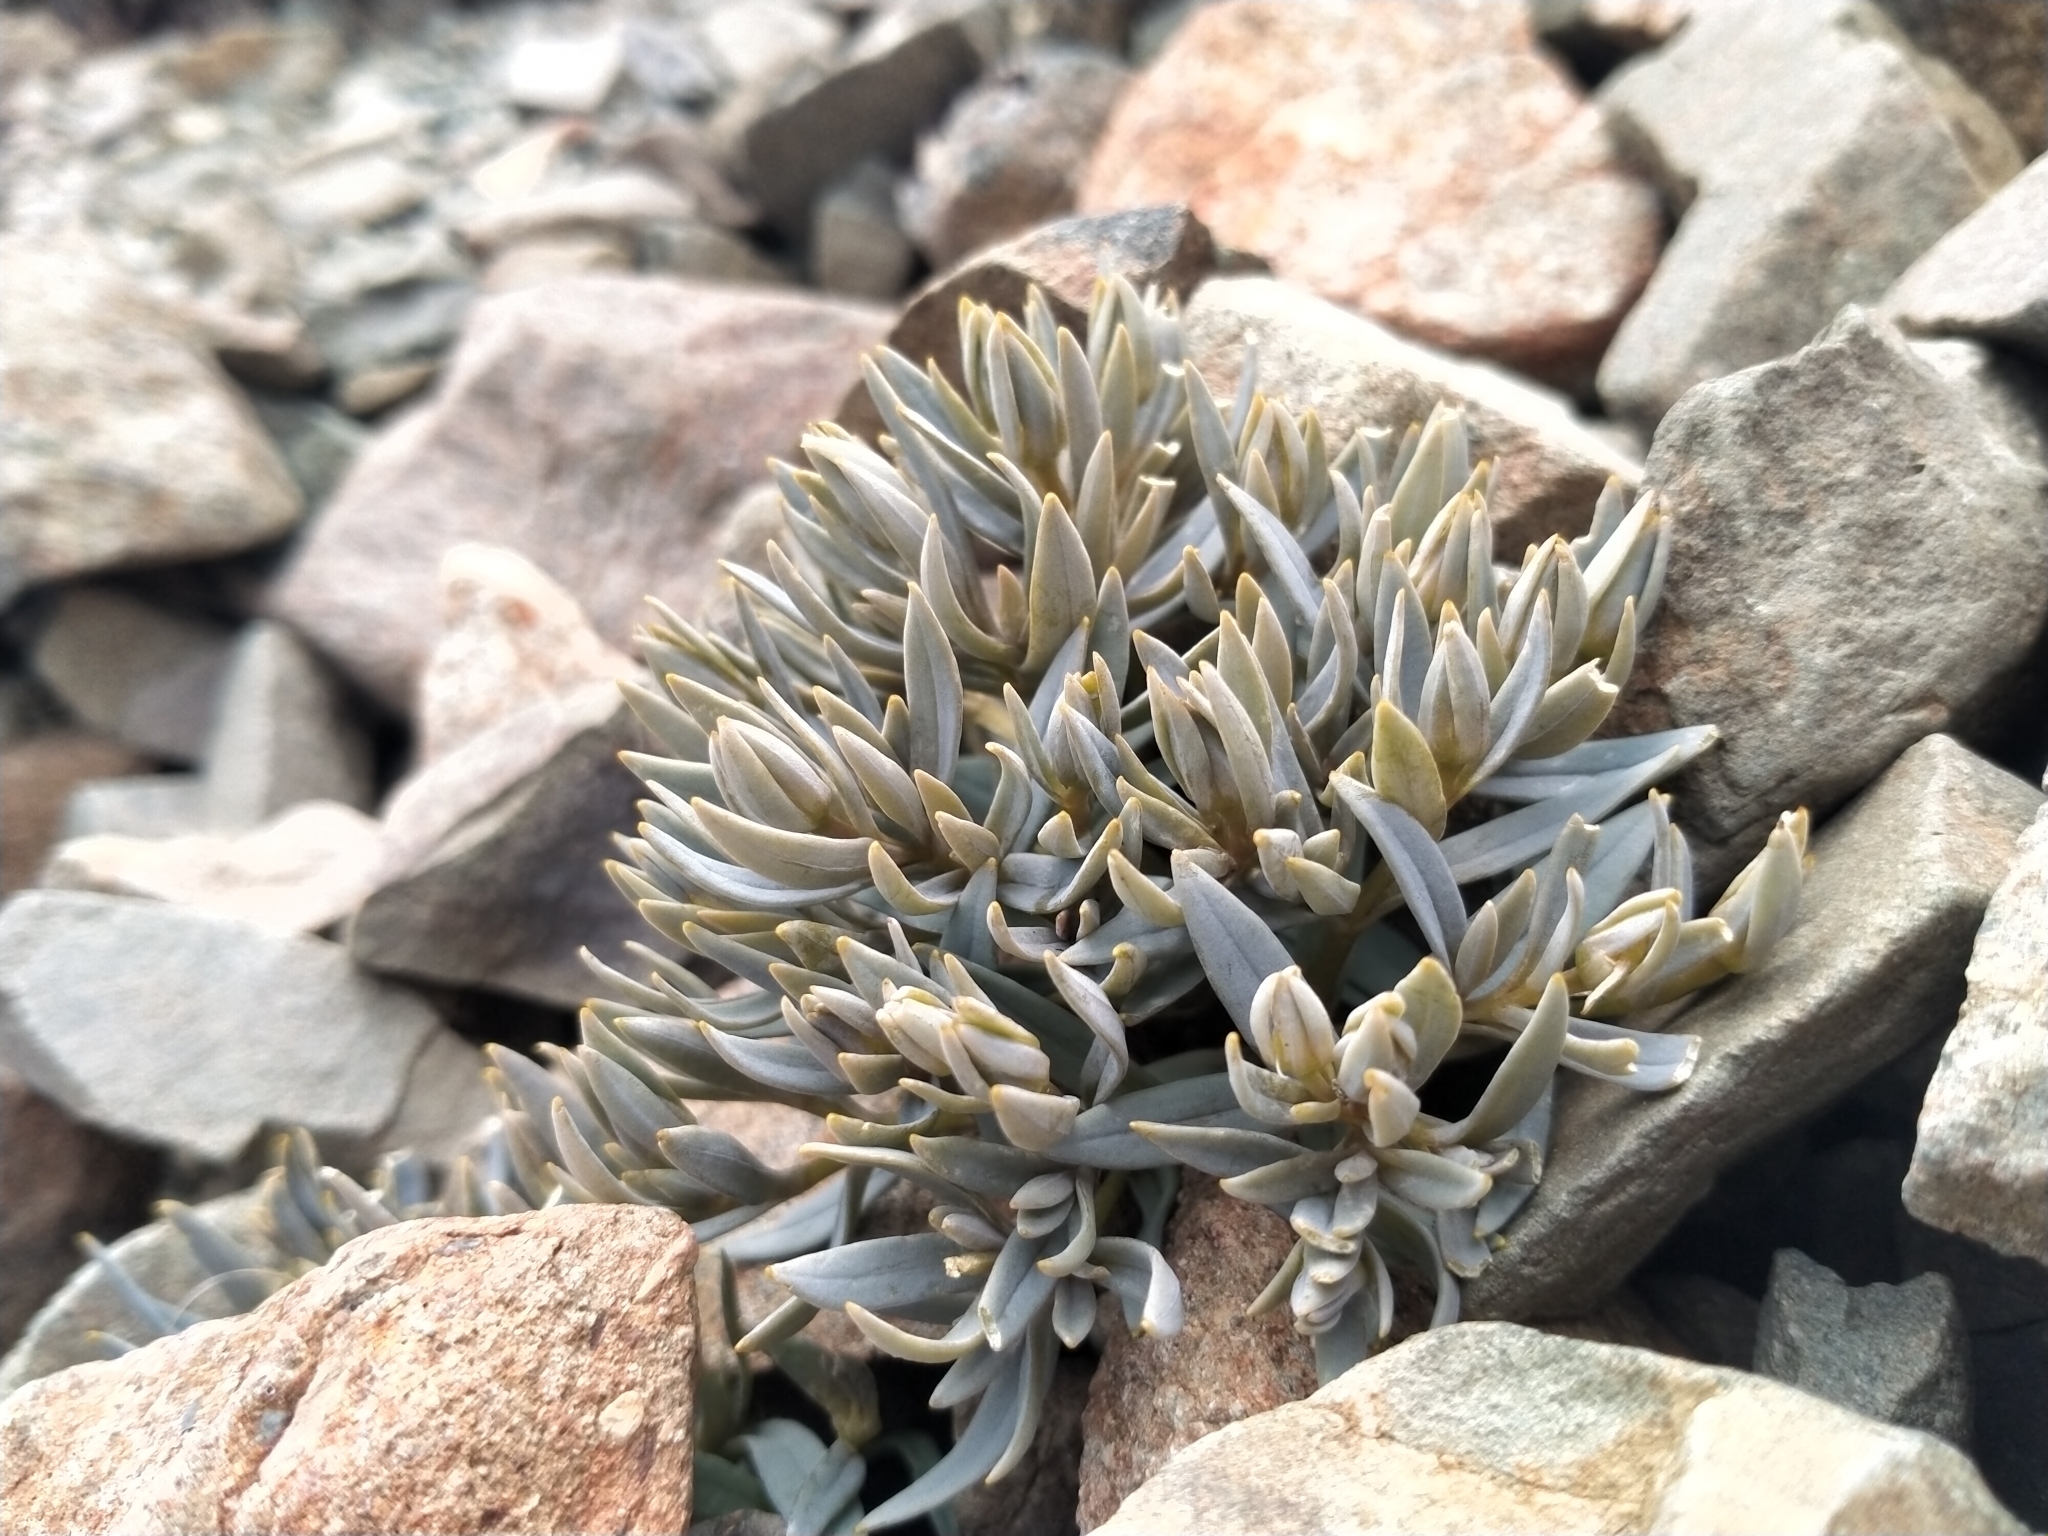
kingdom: Plantae
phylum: Tracheophyta
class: Magnoliopsida
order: Caryophyllales
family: Caryophyllaceae
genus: Stellaria
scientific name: Stellaria roughii
